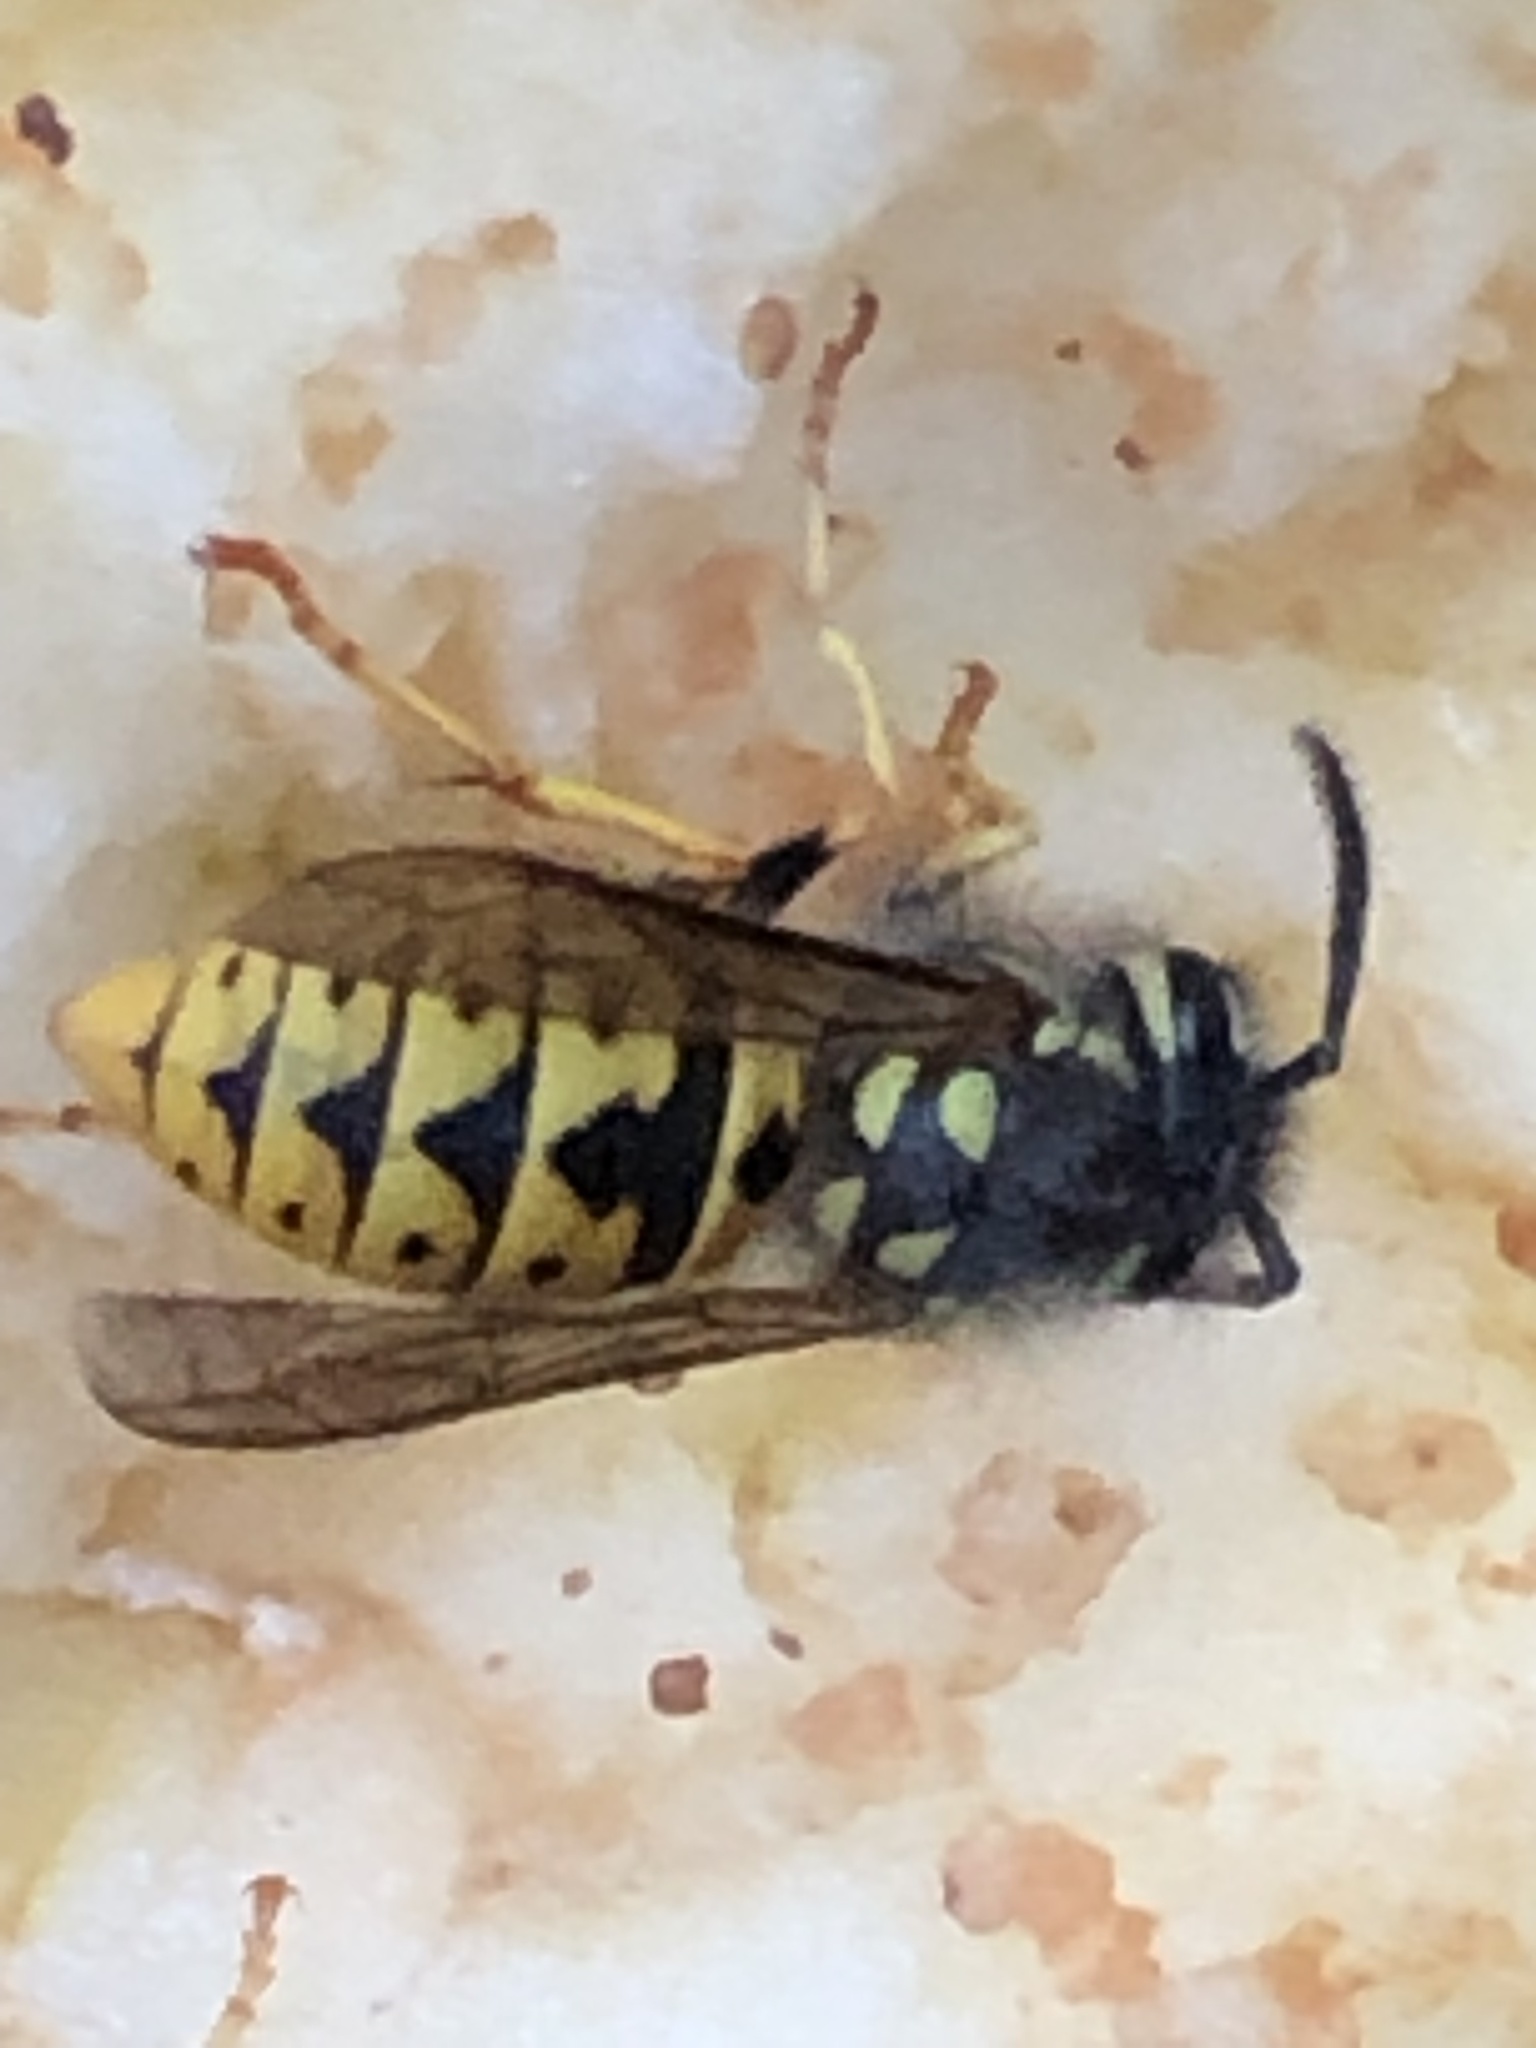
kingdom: Animalia
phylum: Arthropoda
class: Insecta
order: Hymenoptera
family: Vespidae
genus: Vespula
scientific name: Vespula germanica
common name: German wasp
